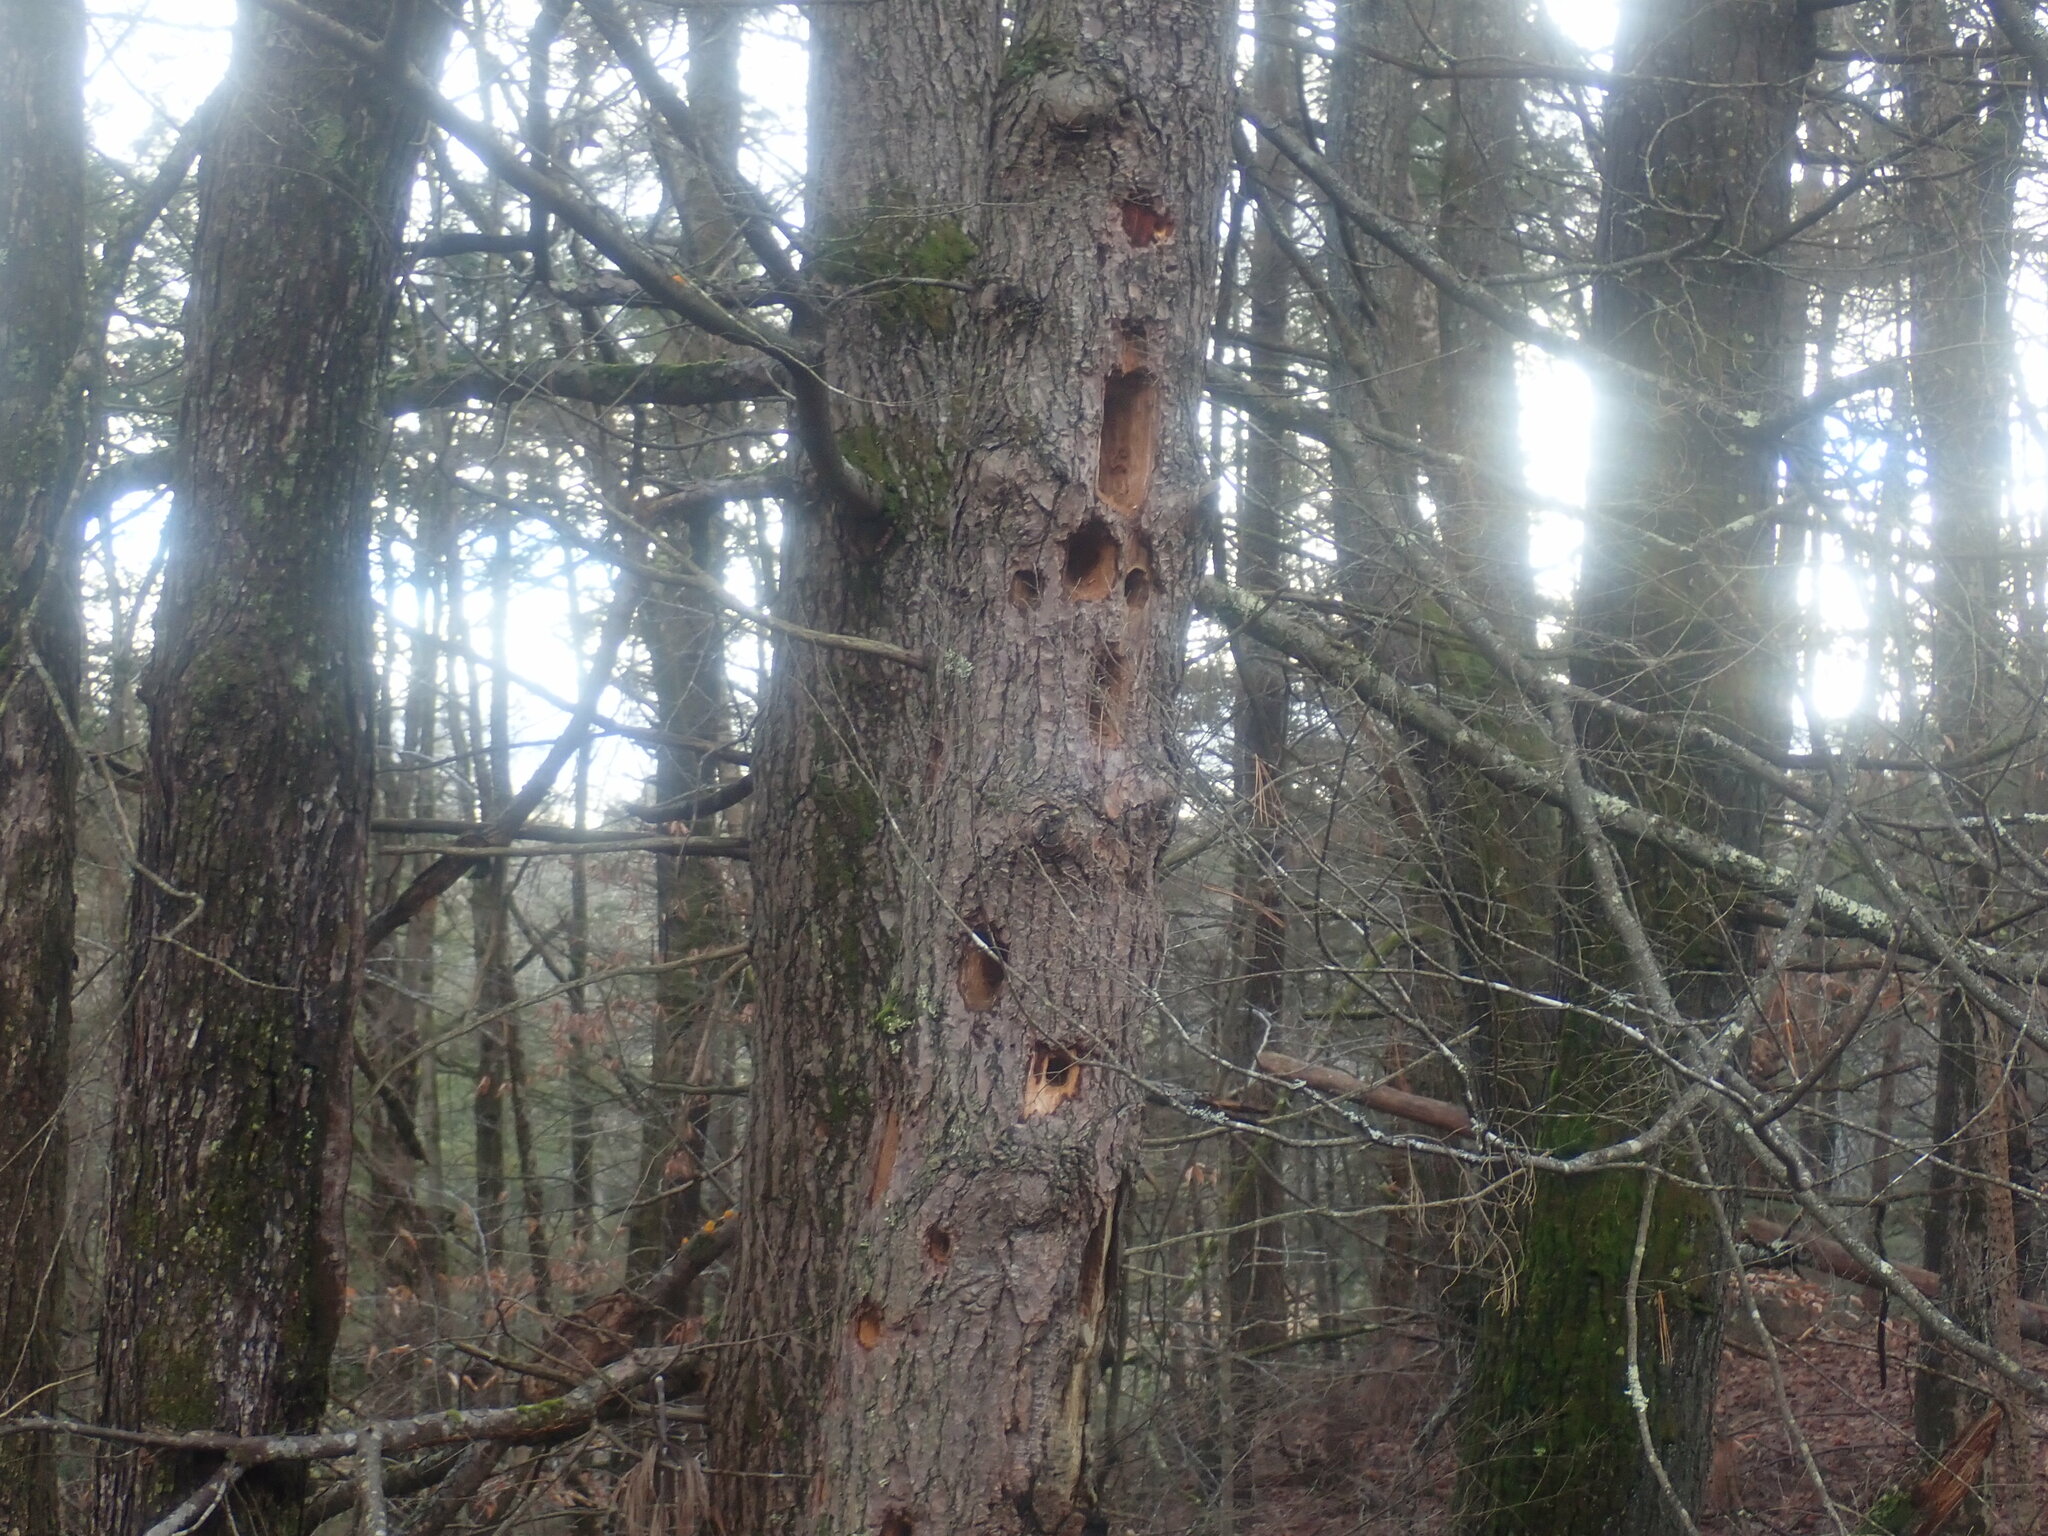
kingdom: Animalia
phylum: Chordata
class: Aves
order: Piciformes
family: Picidae
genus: Dryocopus
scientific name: Dryocopus pileatus
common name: Pileated woodpecker
